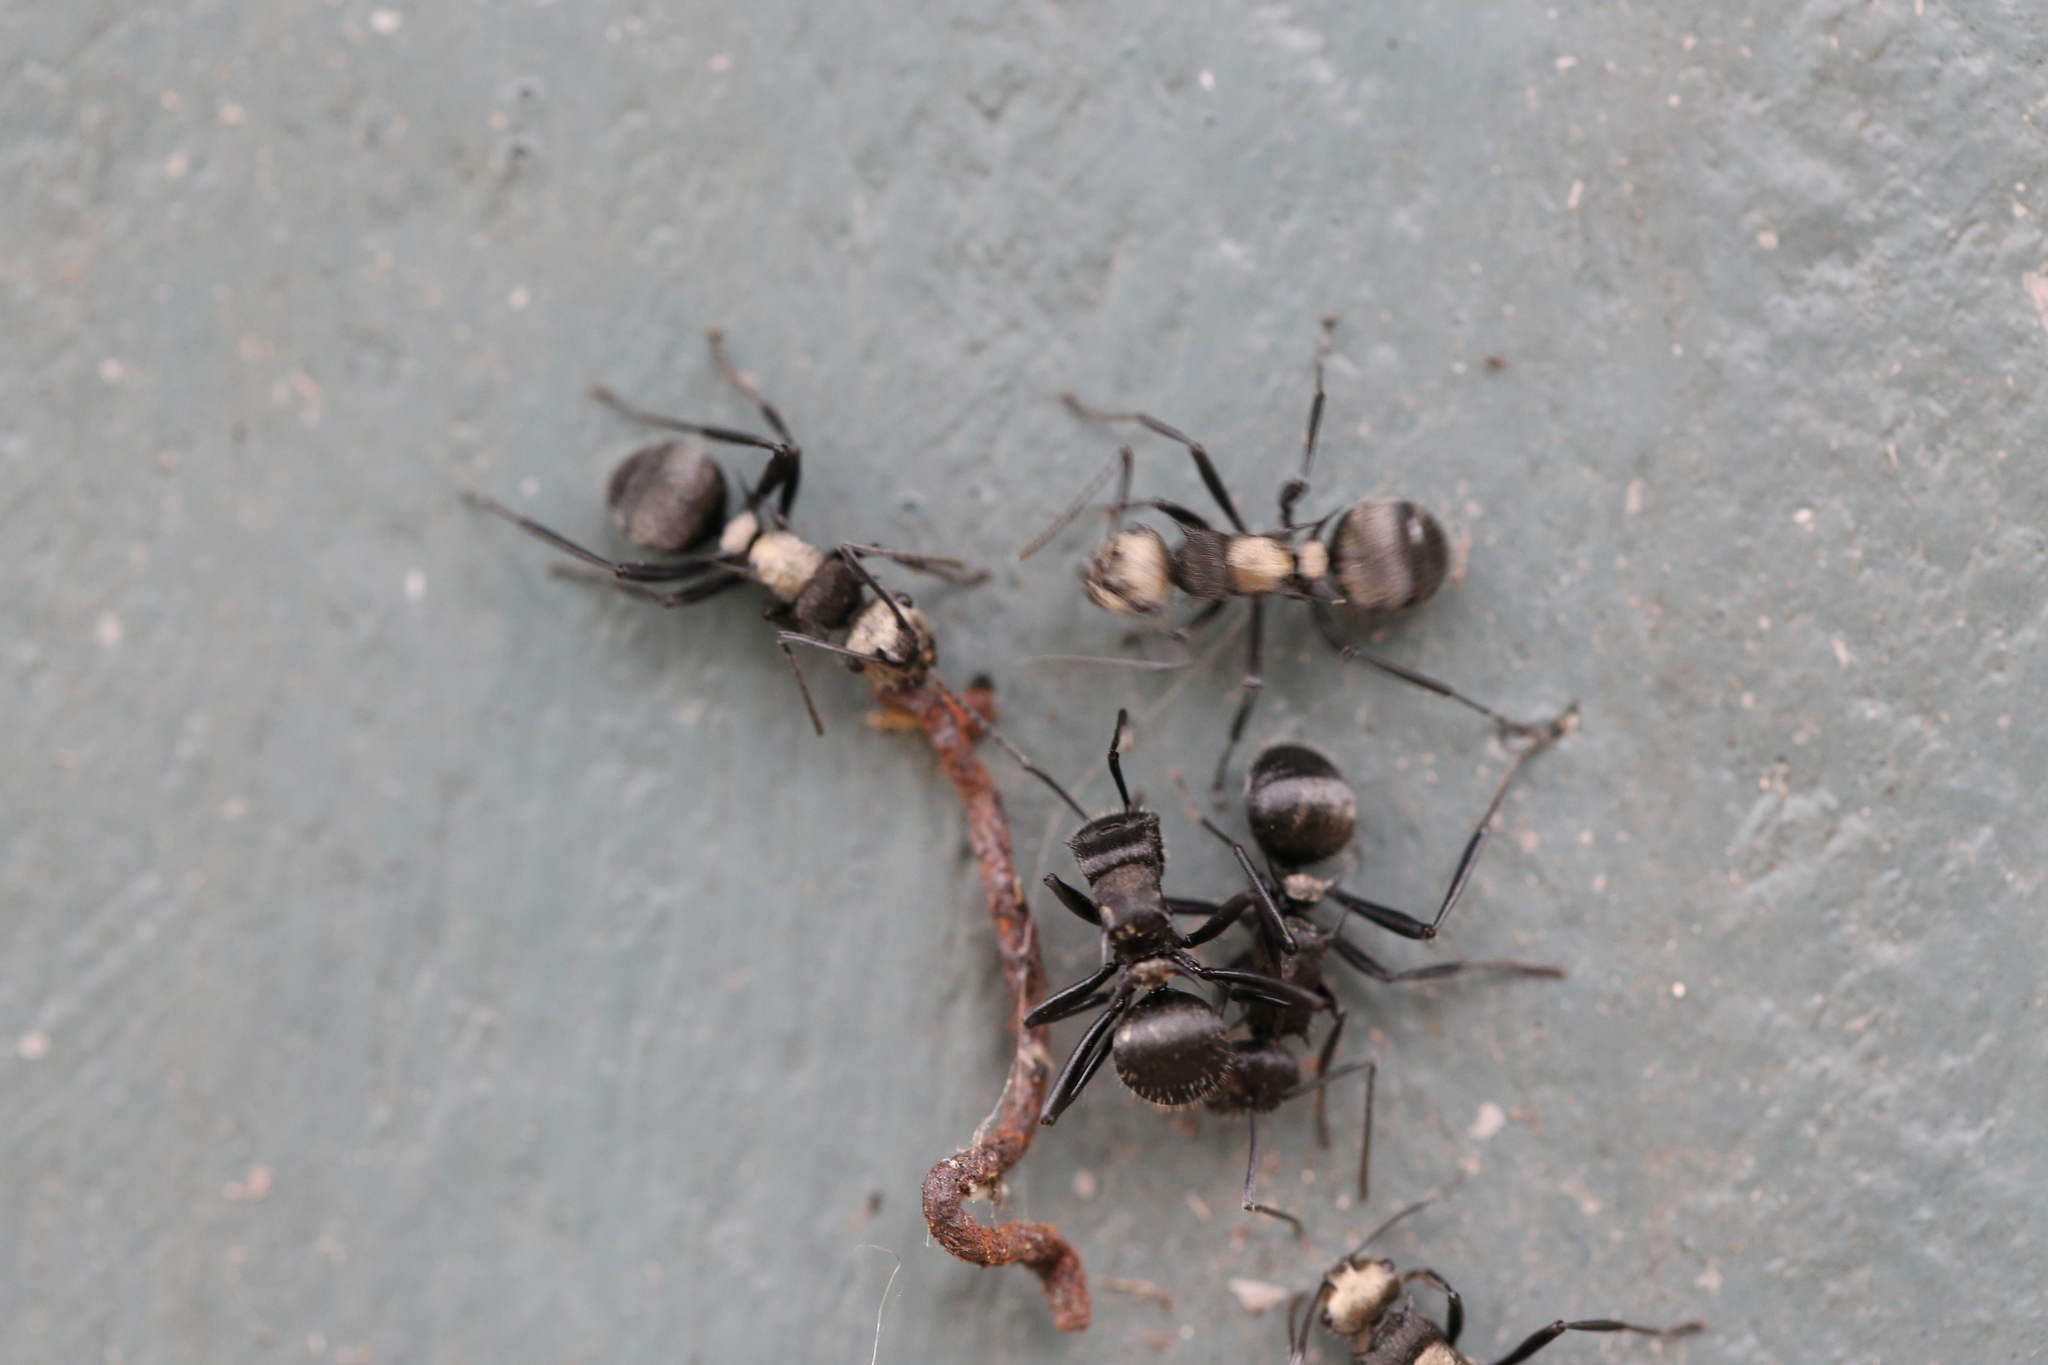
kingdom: Animalia
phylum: Arthropoda
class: Insecta
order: Hymenoptera
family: Formicidae
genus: Polyrhachis
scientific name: Polyrhachis daemeli
